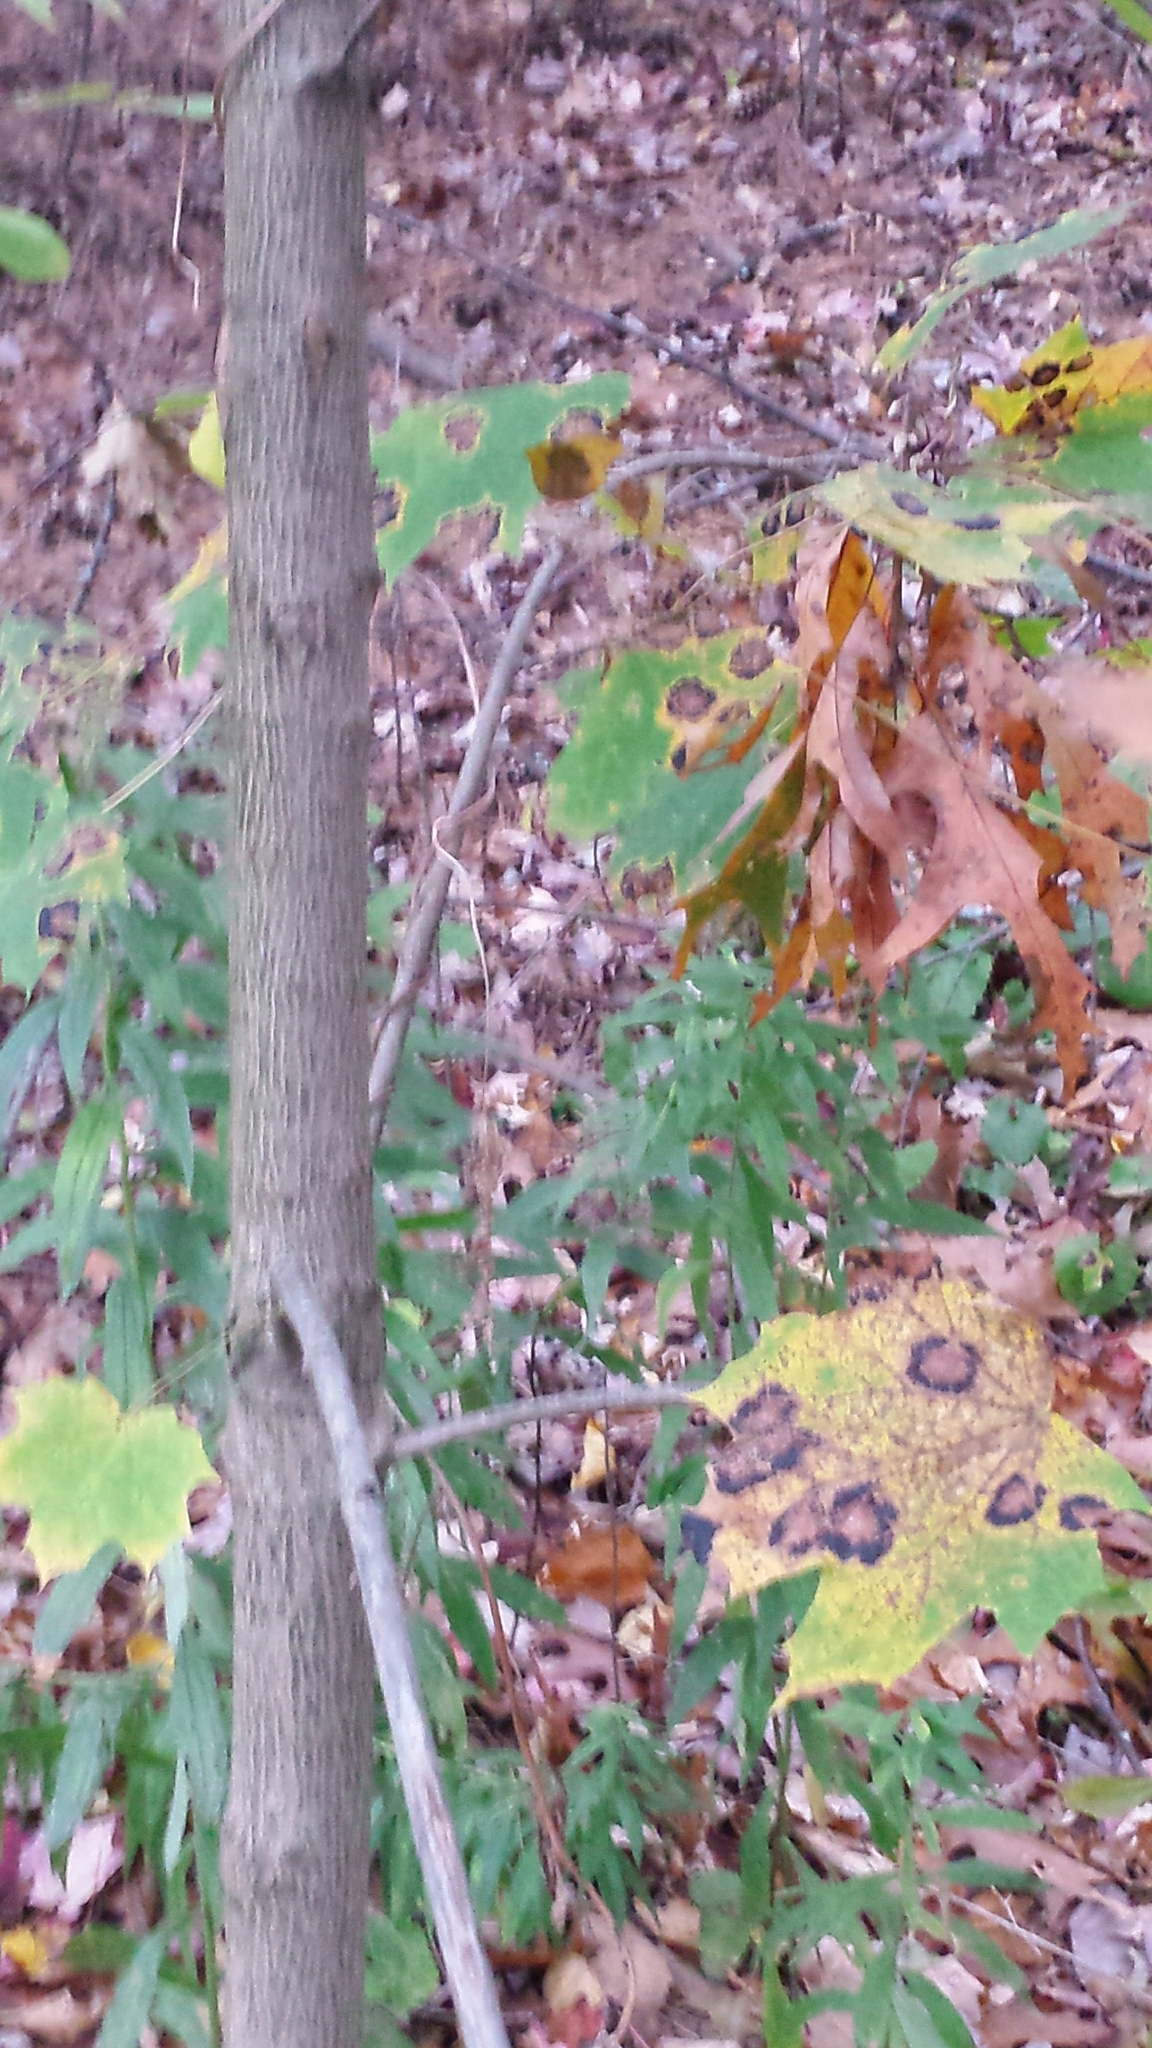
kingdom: Plantae
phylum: Tracheophyta
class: Magnoliopsida
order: Sapindales
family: Sapindaceae
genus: Acer
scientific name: Acer platanoides
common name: Norway maple
